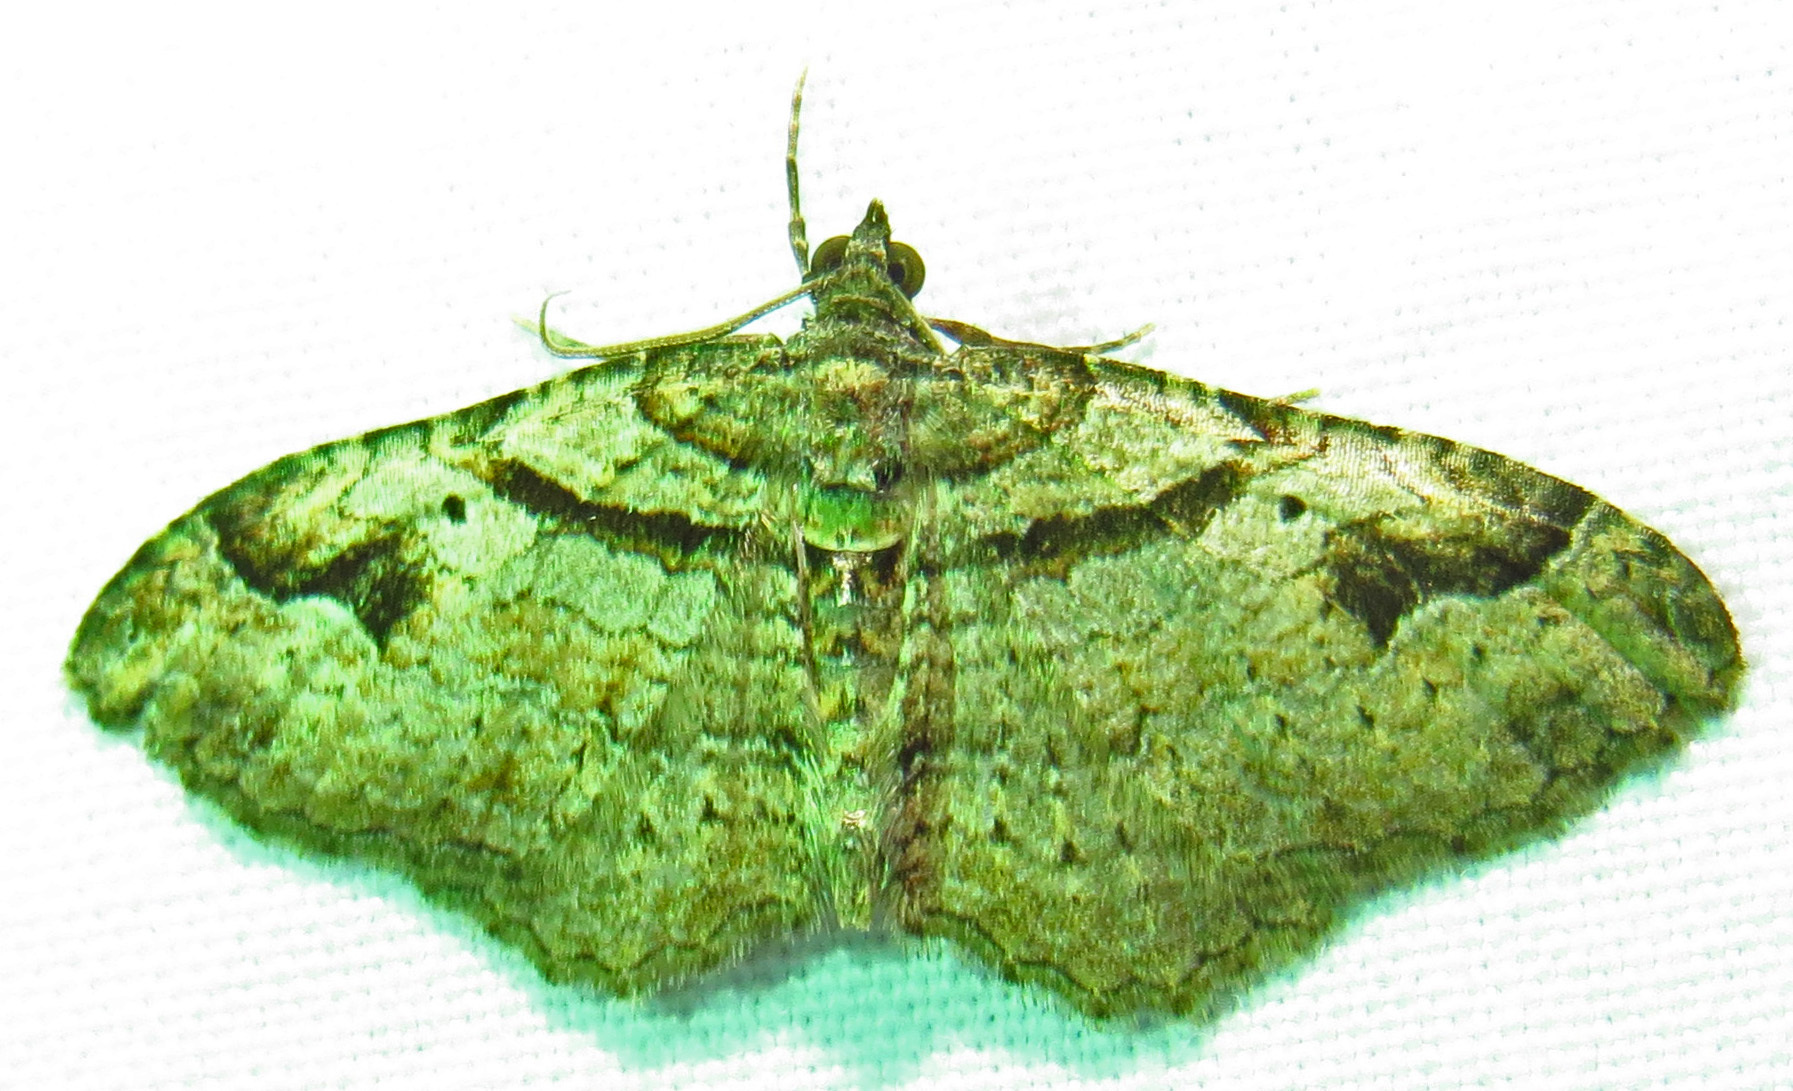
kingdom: Animalia
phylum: Arthropoda
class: Insecta
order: Lepidoptera
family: Geometridae
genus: Costaconvexa
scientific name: Costaconvexa centrostrigaria
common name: Bent-line carpet
